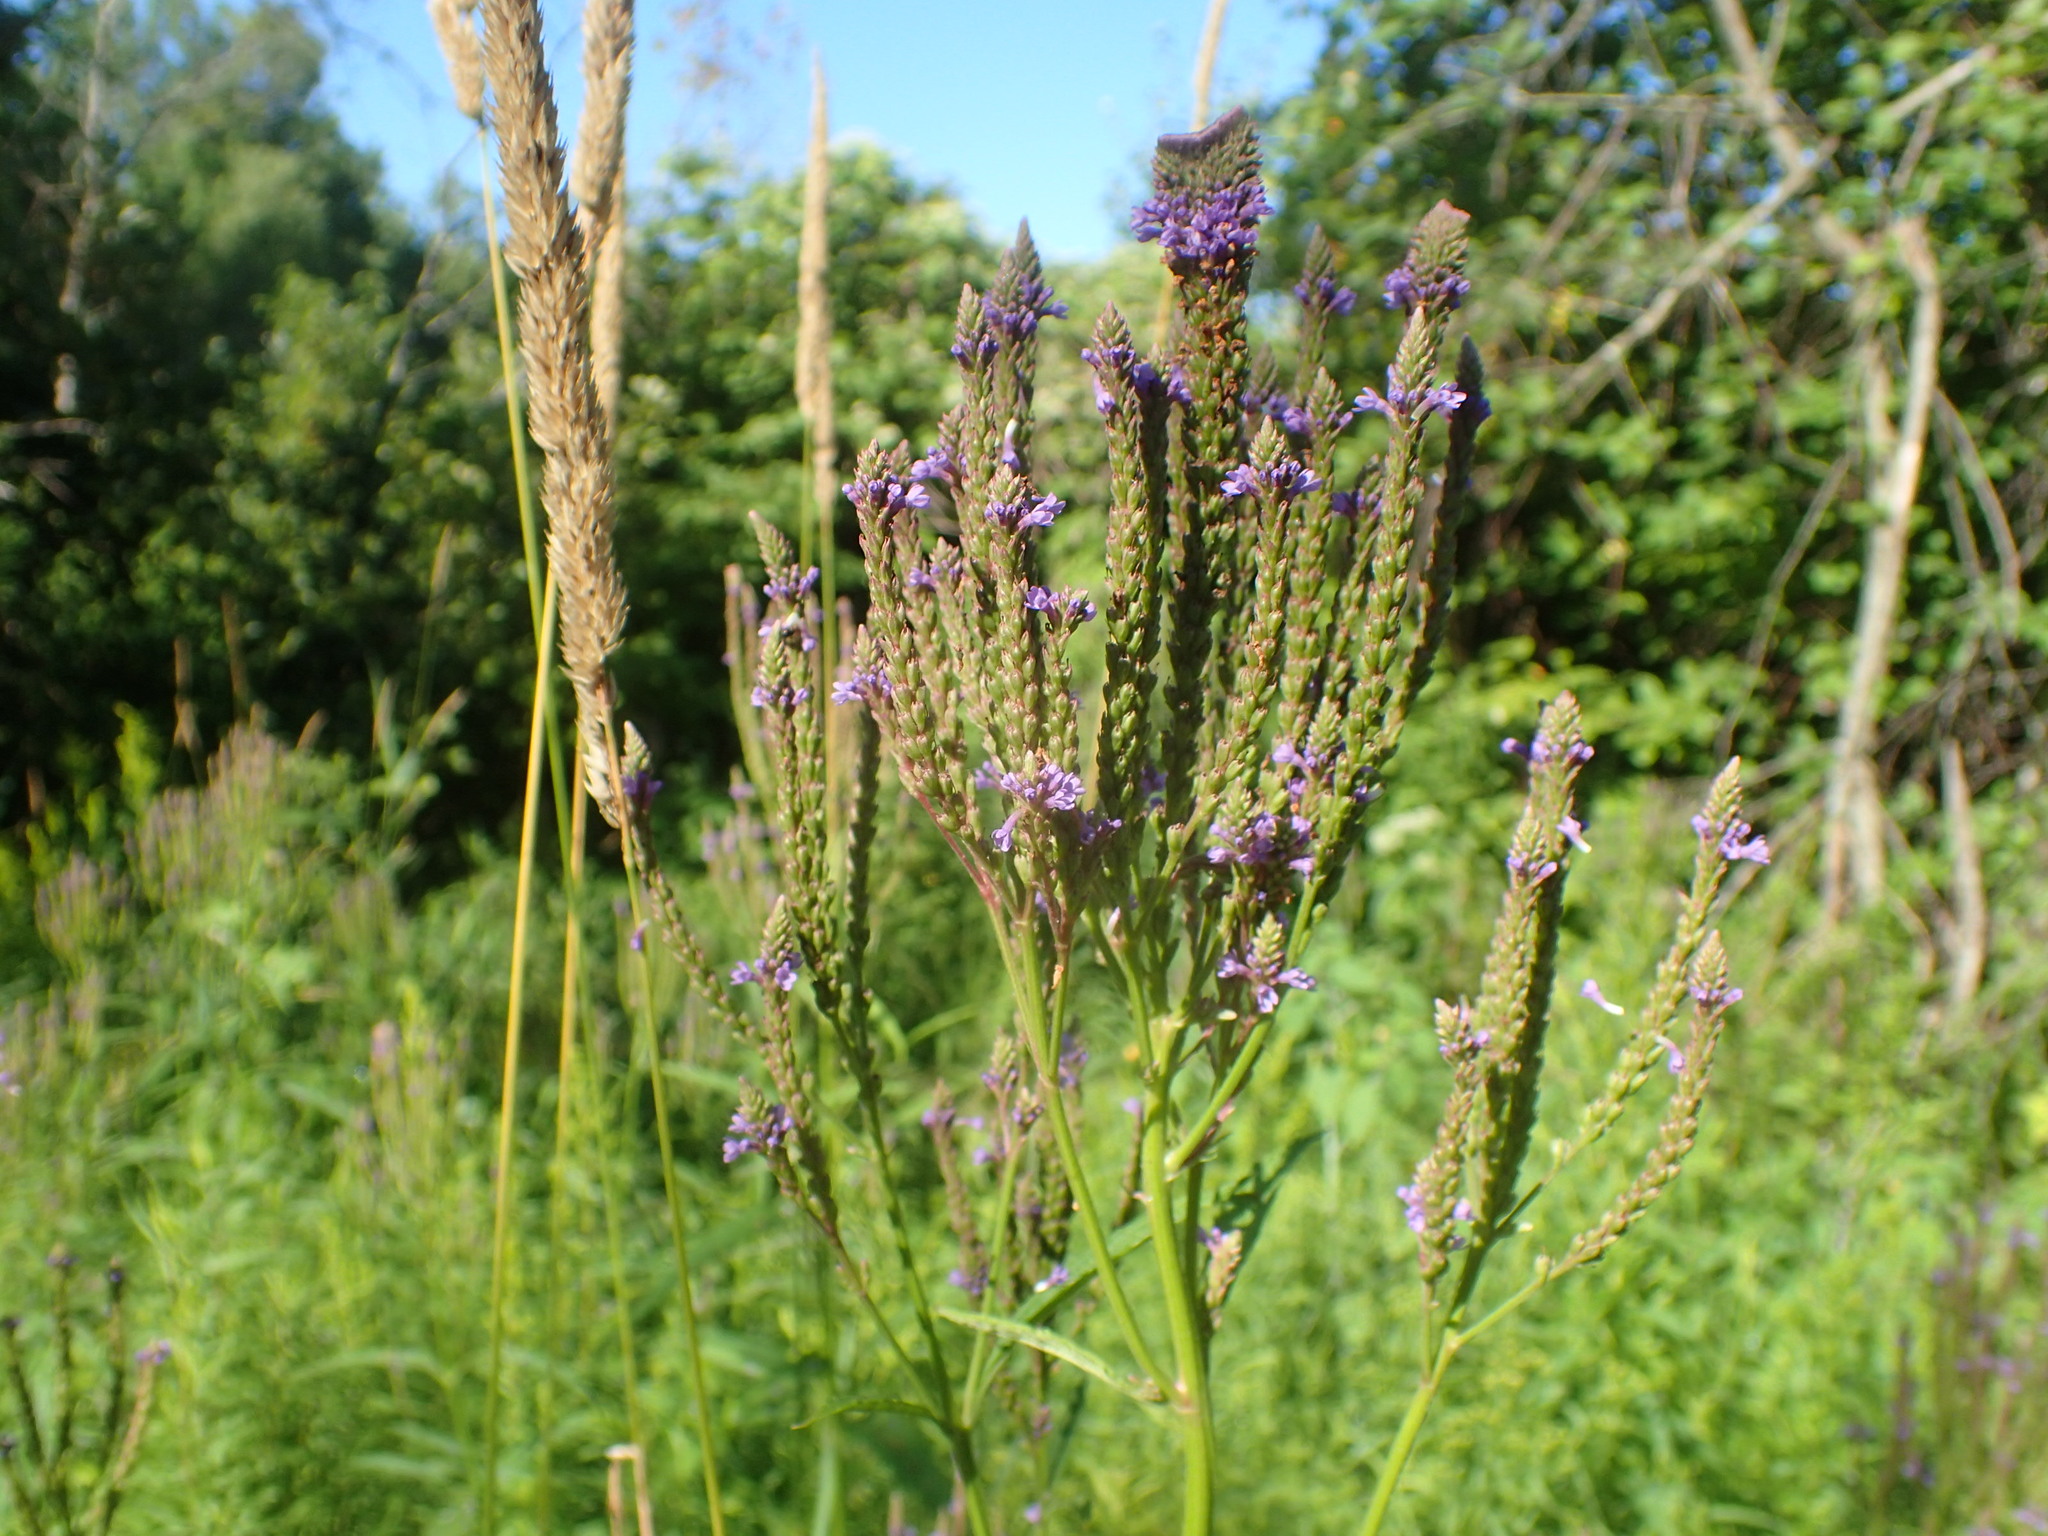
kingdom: Plantae
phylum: Tracheophyta
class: Magnoliopsida
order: Lamiales
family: Verbenaceae
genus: Verbena
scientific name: Verbena hastata
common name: American blue vervain
